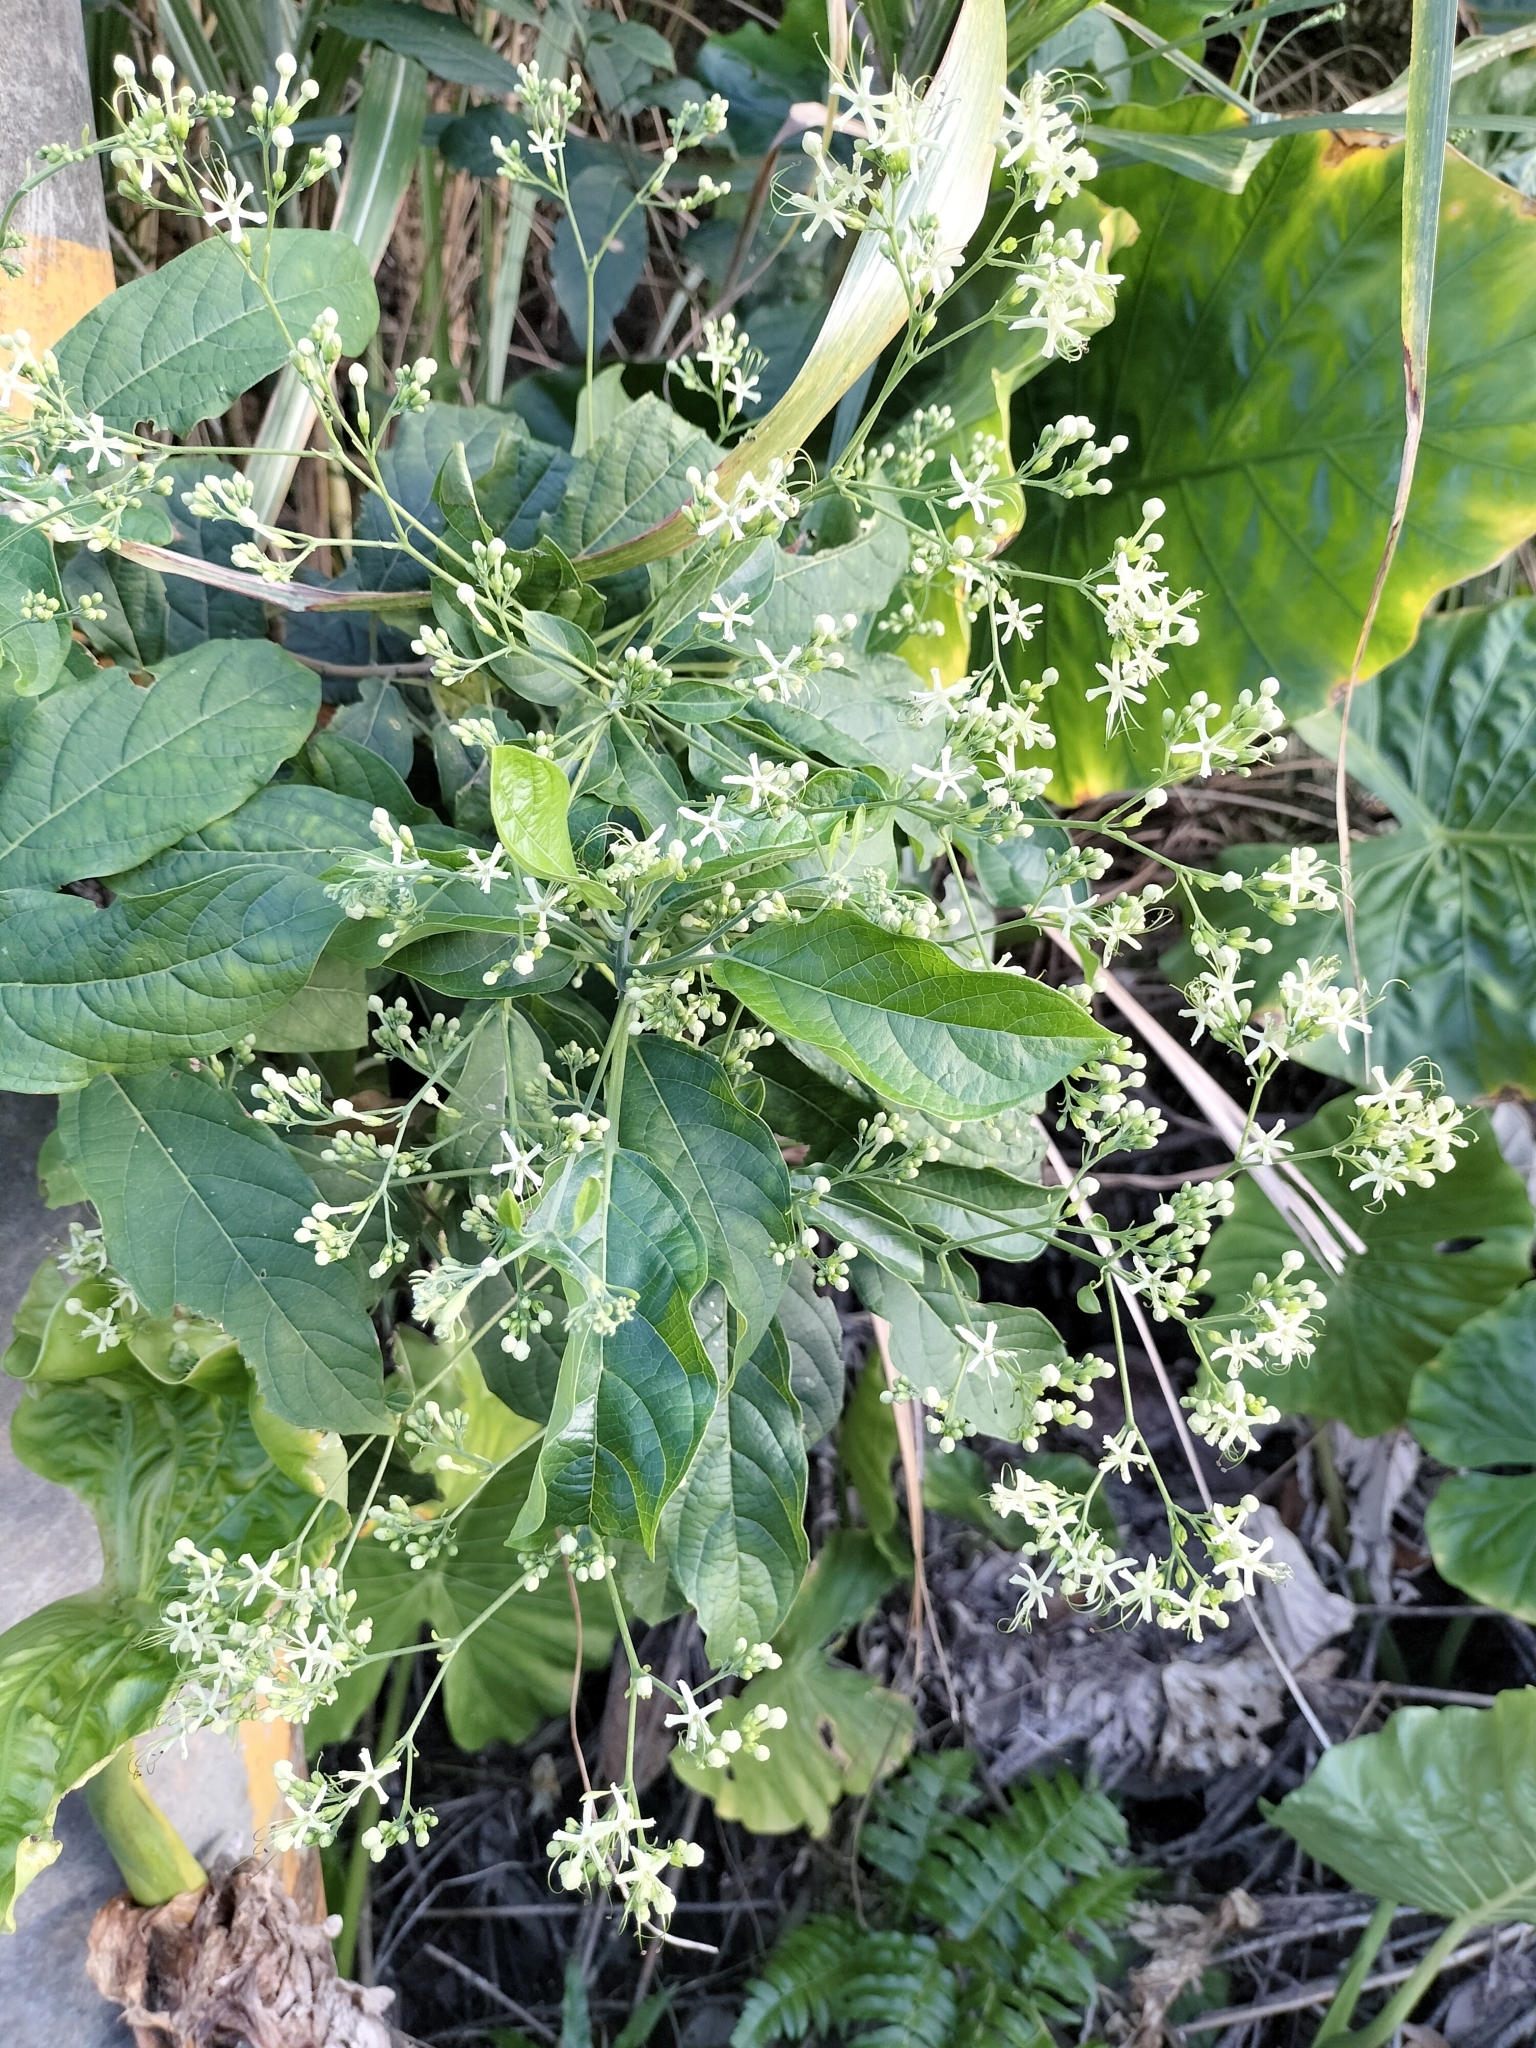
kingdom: Plantae
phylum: Tracheophyta
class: Magnoliopsida
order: Lamiales
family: Lamiaceae
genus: Clerodendrum
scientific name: Clerodendrum cyrtophyllum
